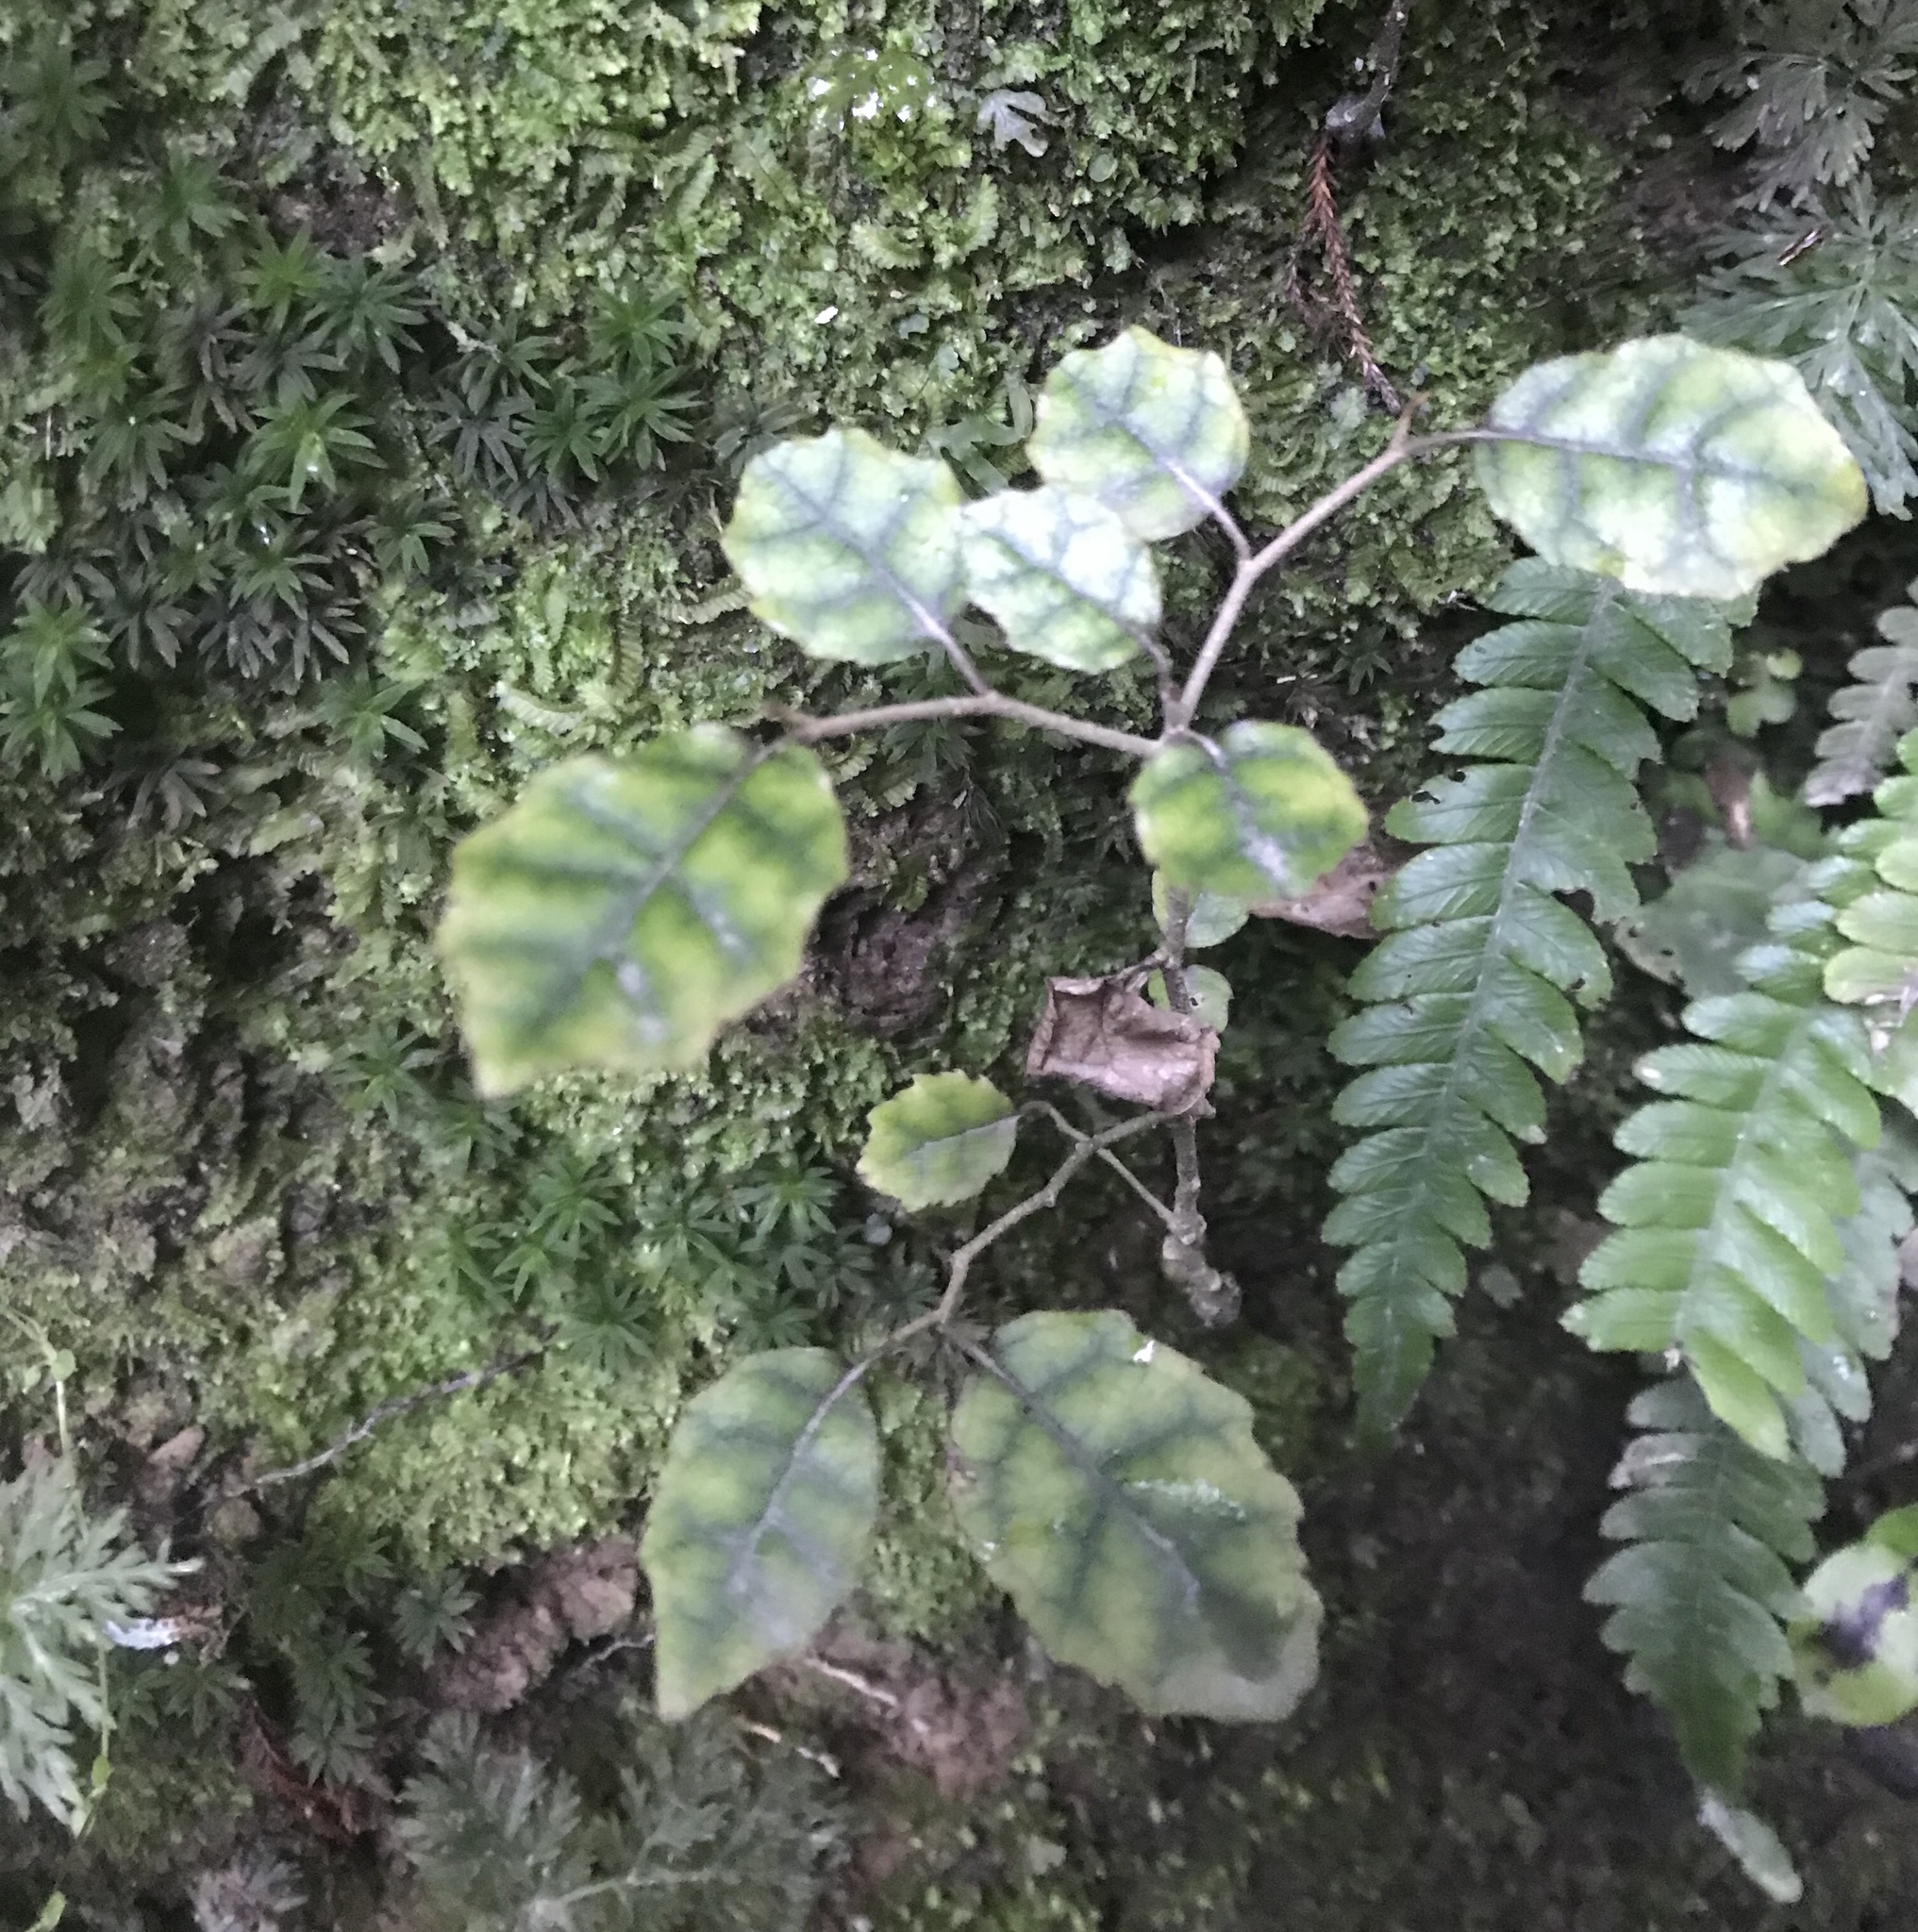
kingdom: Plantae
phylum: Tracheophyta
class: Magnoliopsida
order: Asterales
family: Rousseaceae
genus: Carpodetus
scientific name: Carpodetus serratus
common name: White mapau
